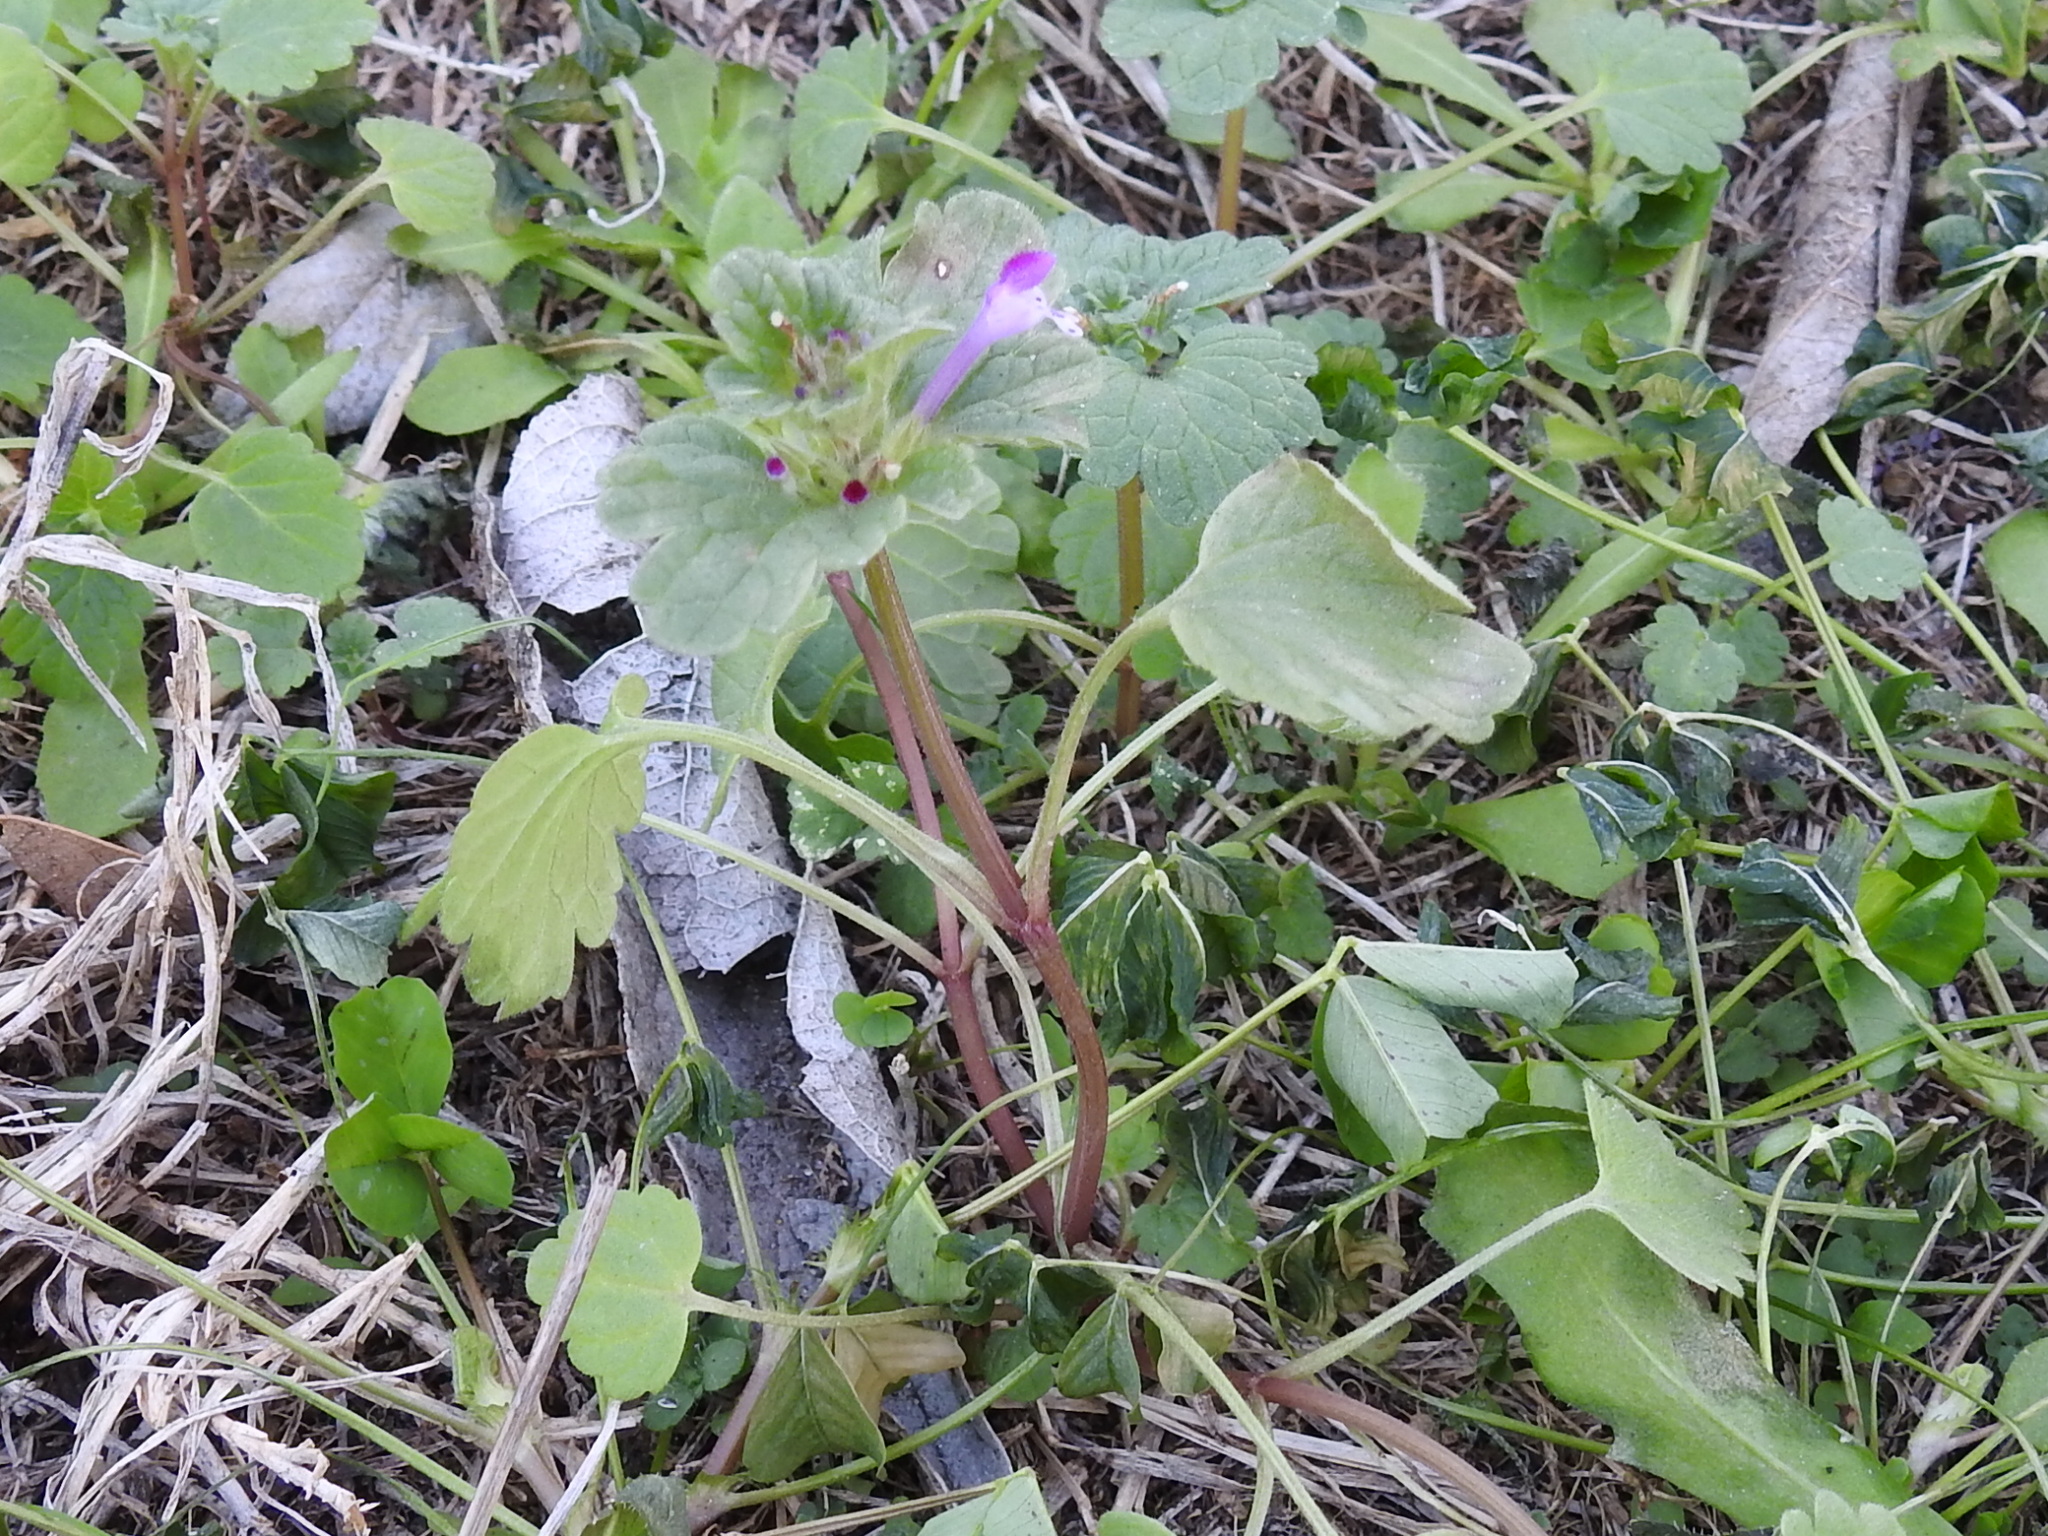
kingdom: Plantae
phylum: Tracheophyta
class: Magnoliopsida
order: Lamiales
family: Lamiaceae
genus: Lamium
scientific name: Lamium amplexicaule
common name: Henbit dead-nettle
